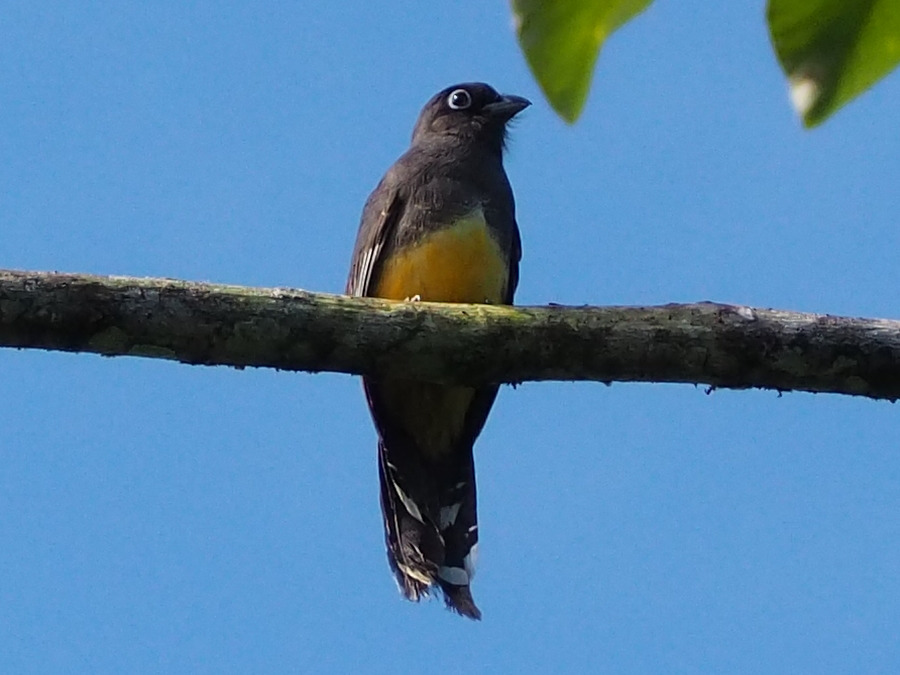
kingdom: Animalia
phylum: Chordata
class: Aves
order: Trogoniformes
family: Trogonidae
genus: Trogon
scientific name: Trogon melanocephalus
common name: Black-headed trogon
